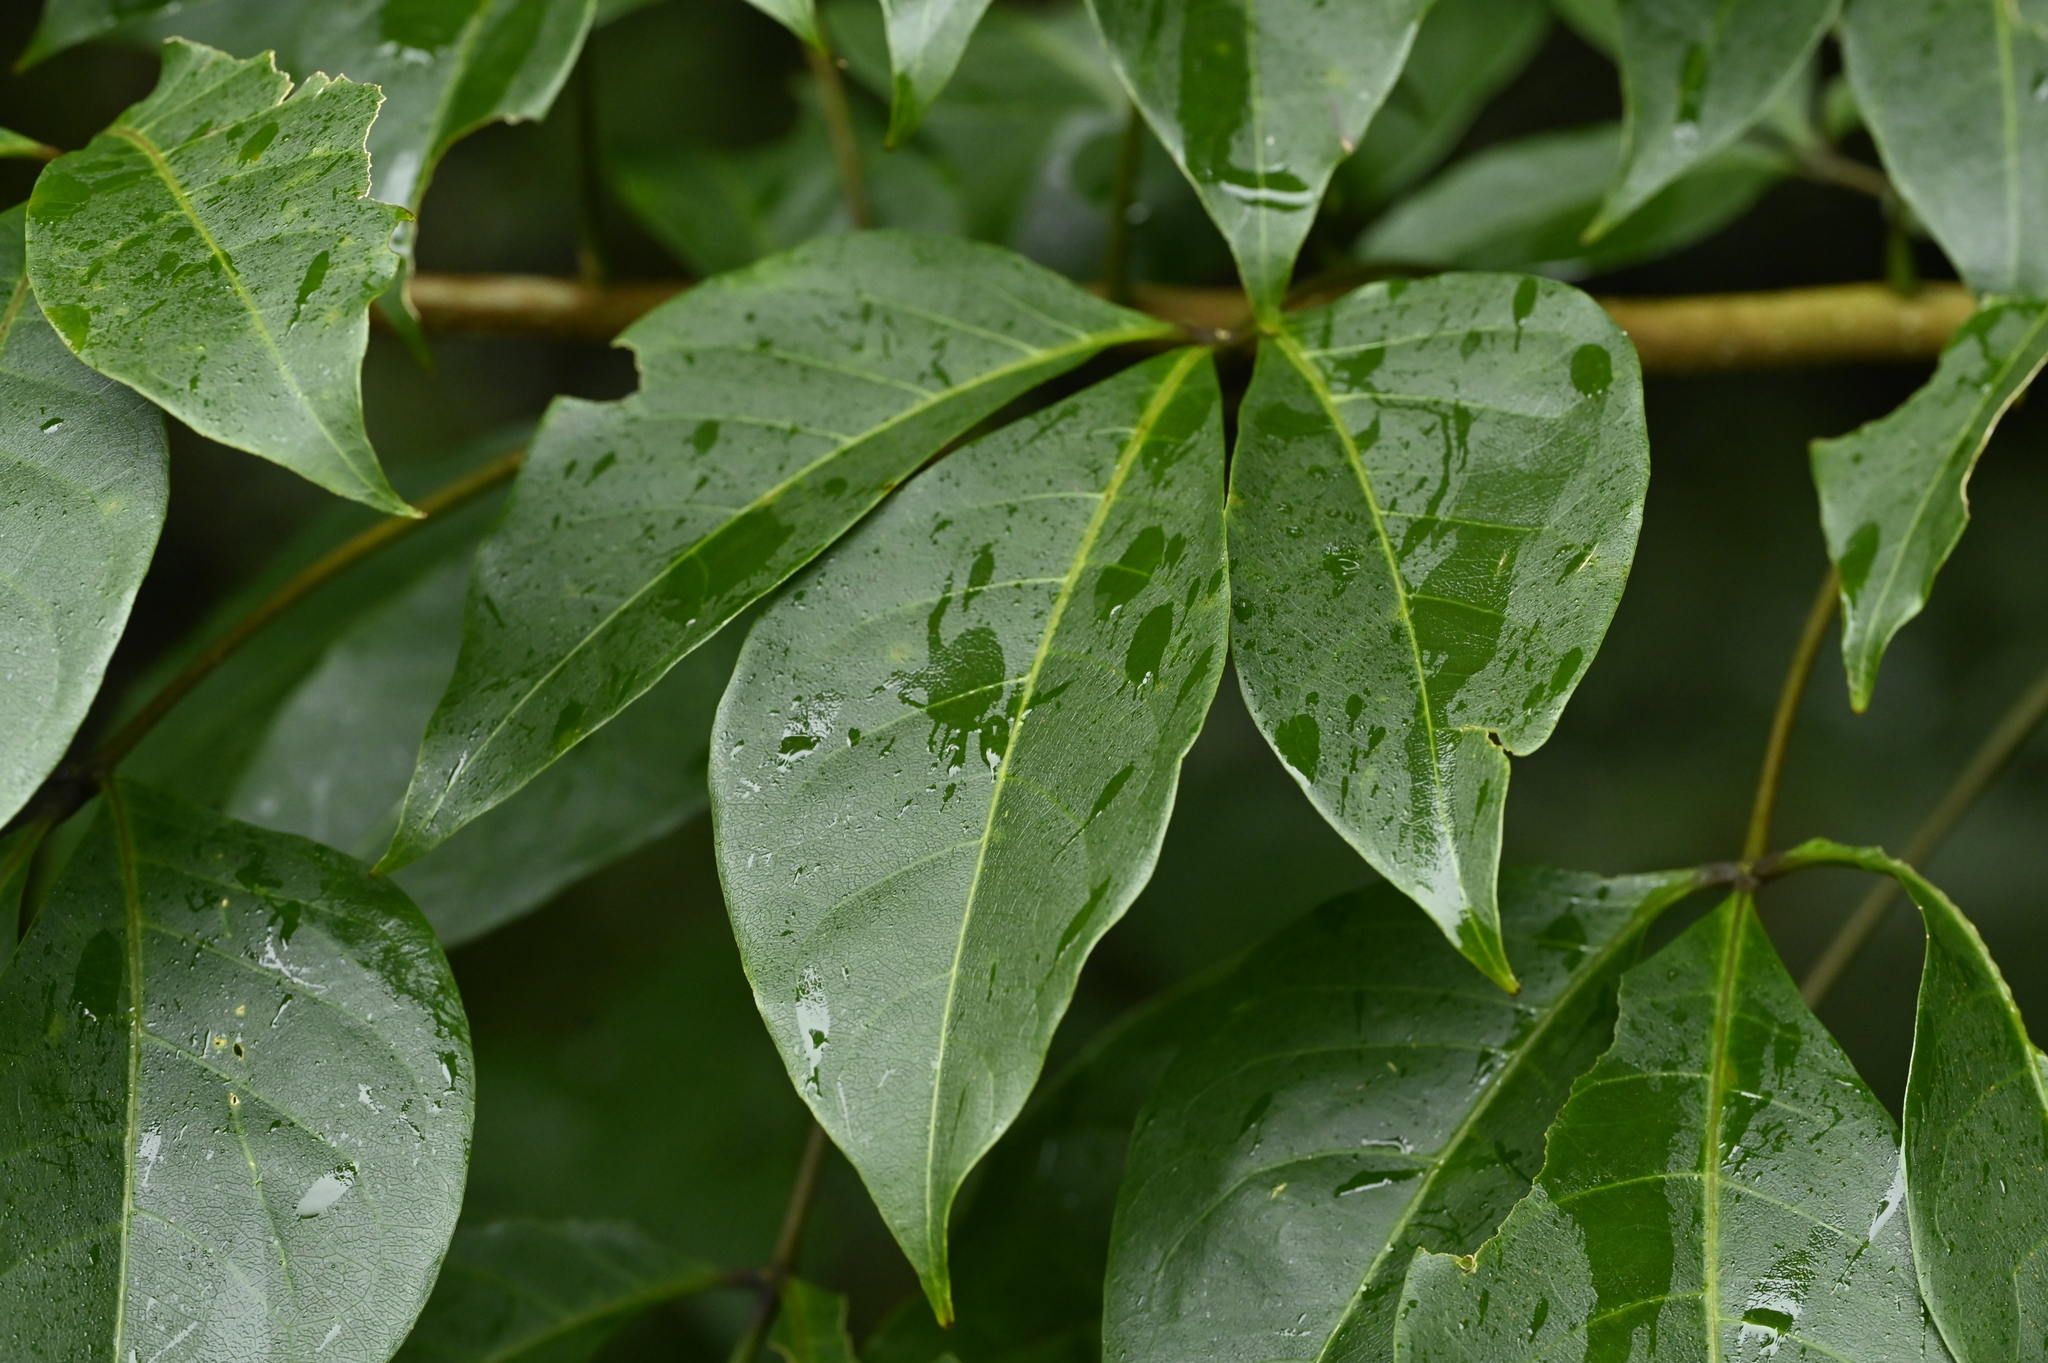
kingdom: Plantae
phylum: Tracheophyta
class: Magnoliopsida
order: Brassicales
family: Capparaceae
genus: Crateva
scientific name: Crateva adansonii
